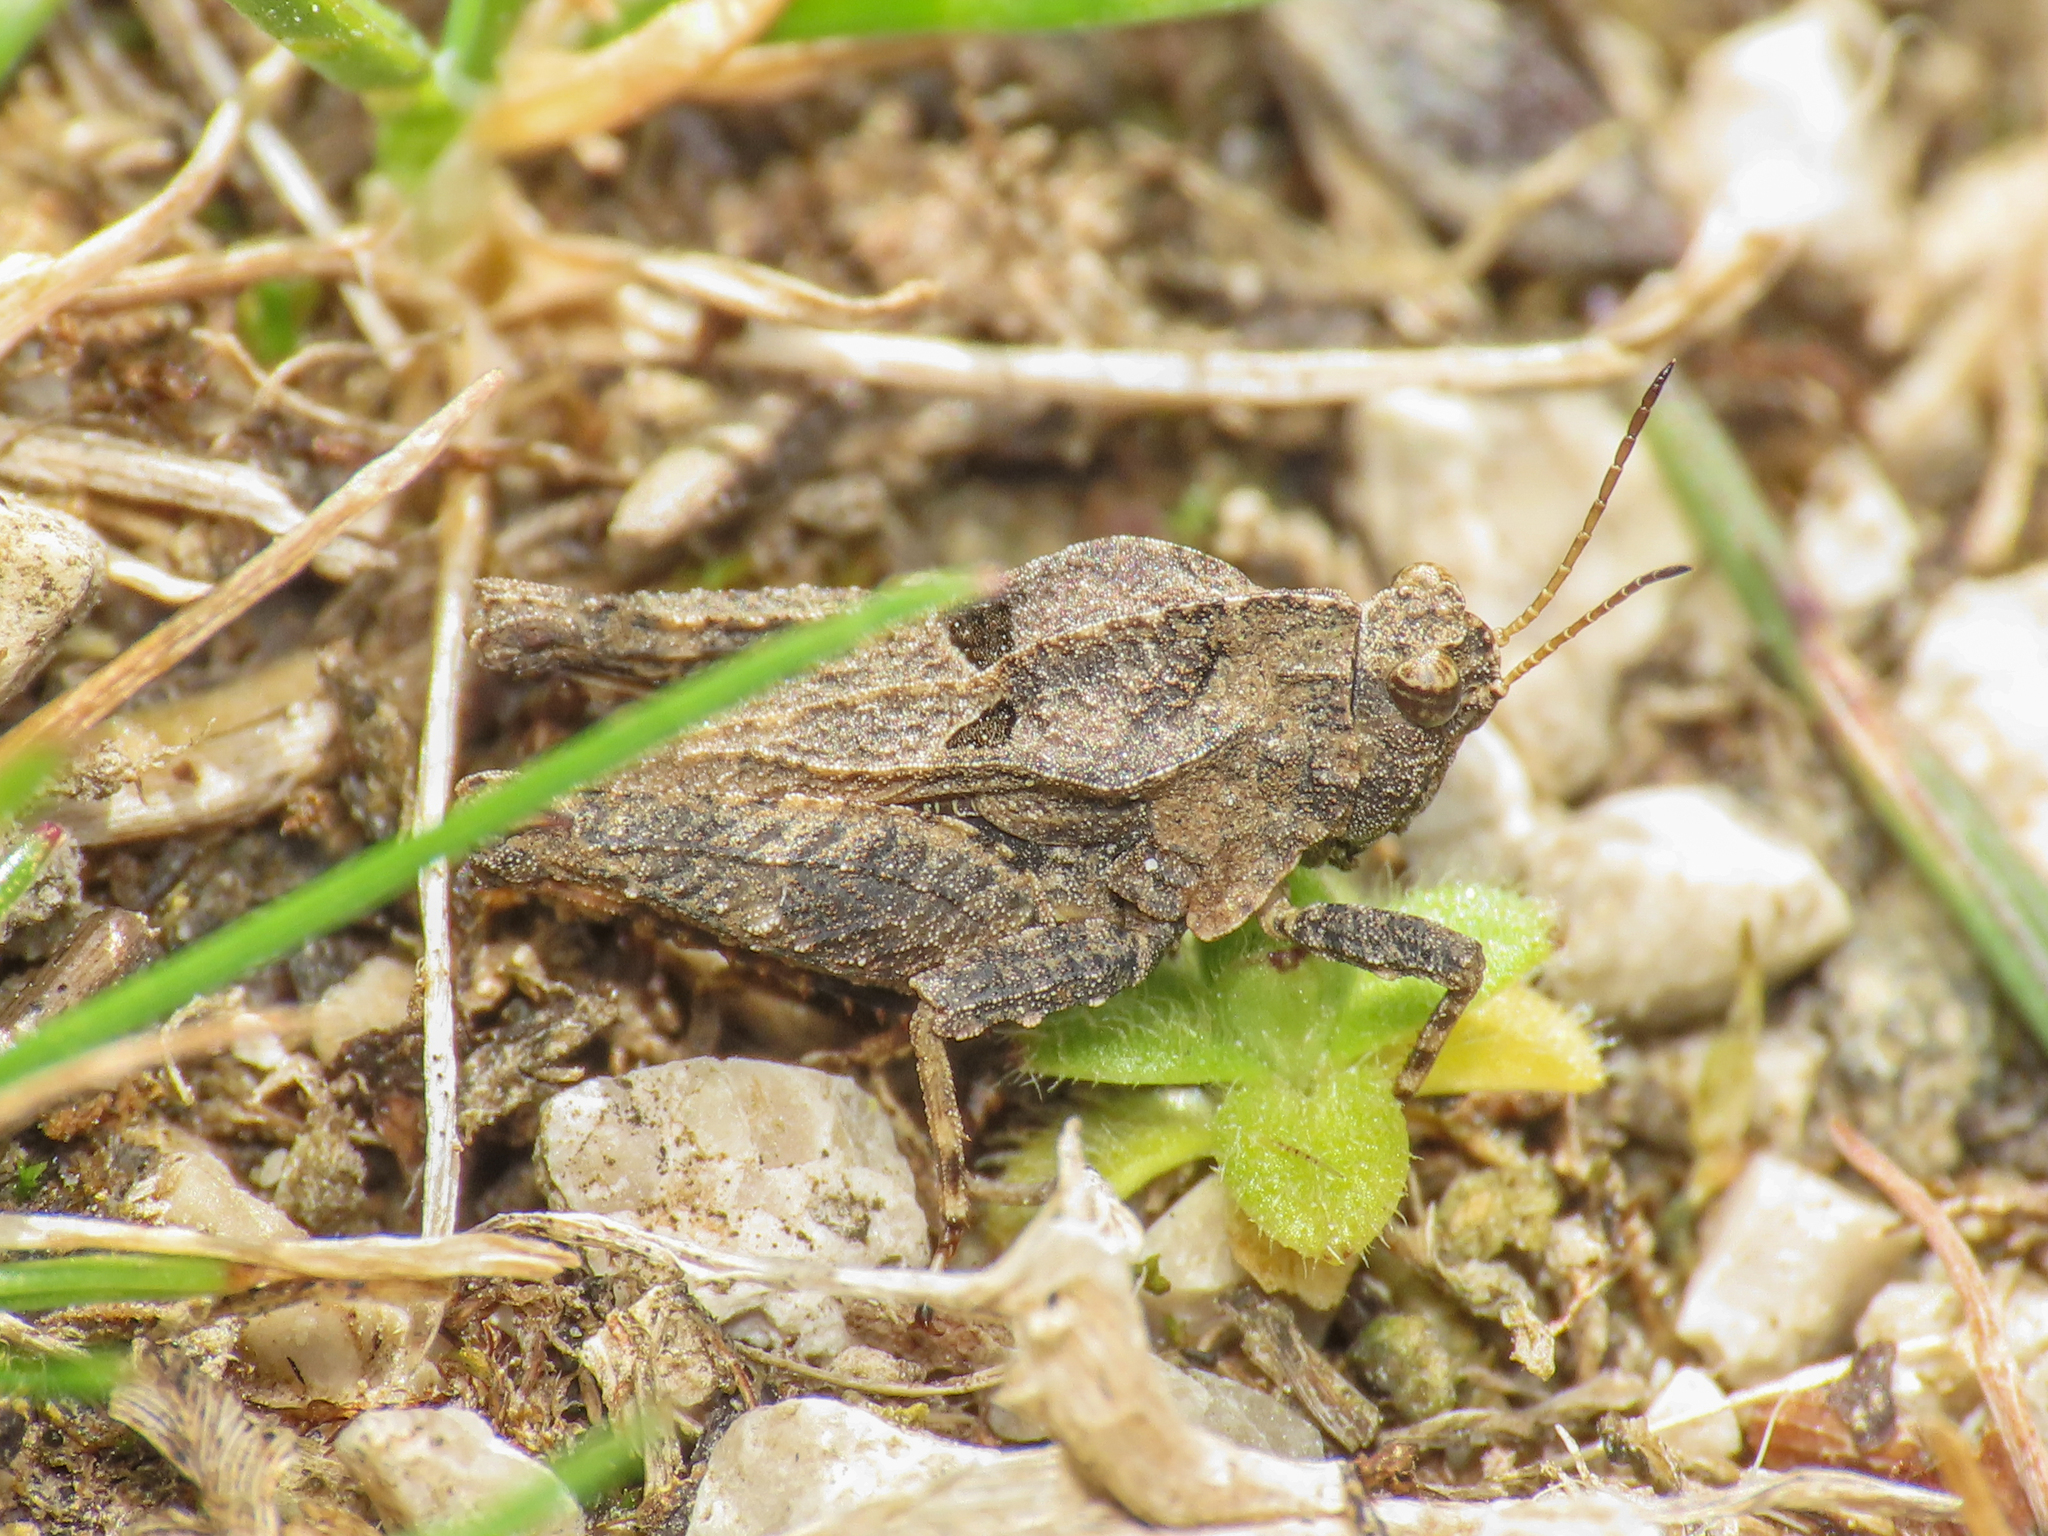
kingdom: Animalia
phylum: Arthropoda
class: Insecta
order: Orthoptera
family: Tetrigidae
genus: Tetrix
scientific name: Tetrix depressa
